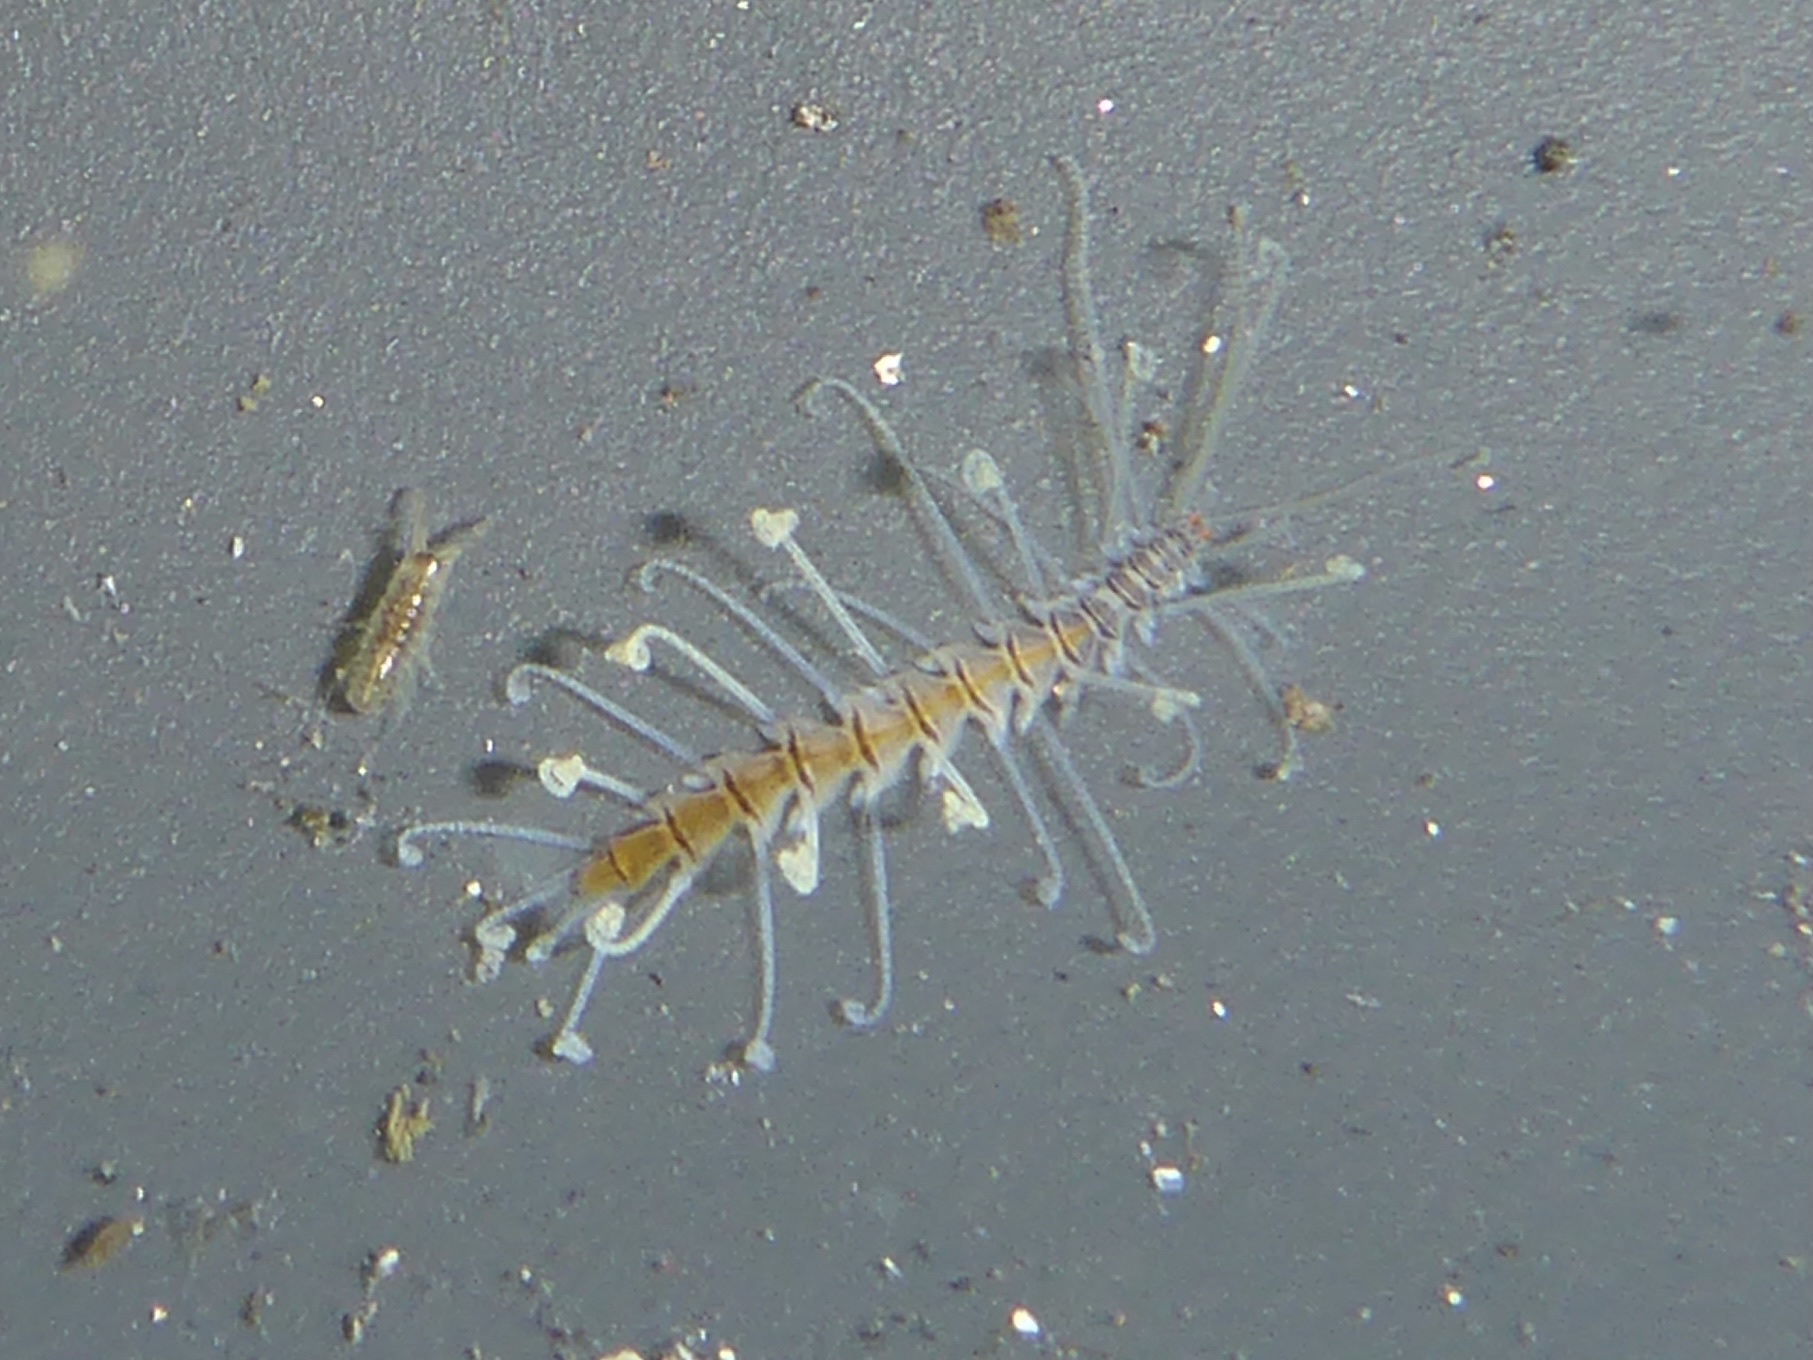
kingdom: Animalia
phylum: Annelida
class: Polychaeta
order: Phyllodocida
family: Syllidae
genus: Amblyosyllis
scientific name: Amblyosyllis nigrolineata
